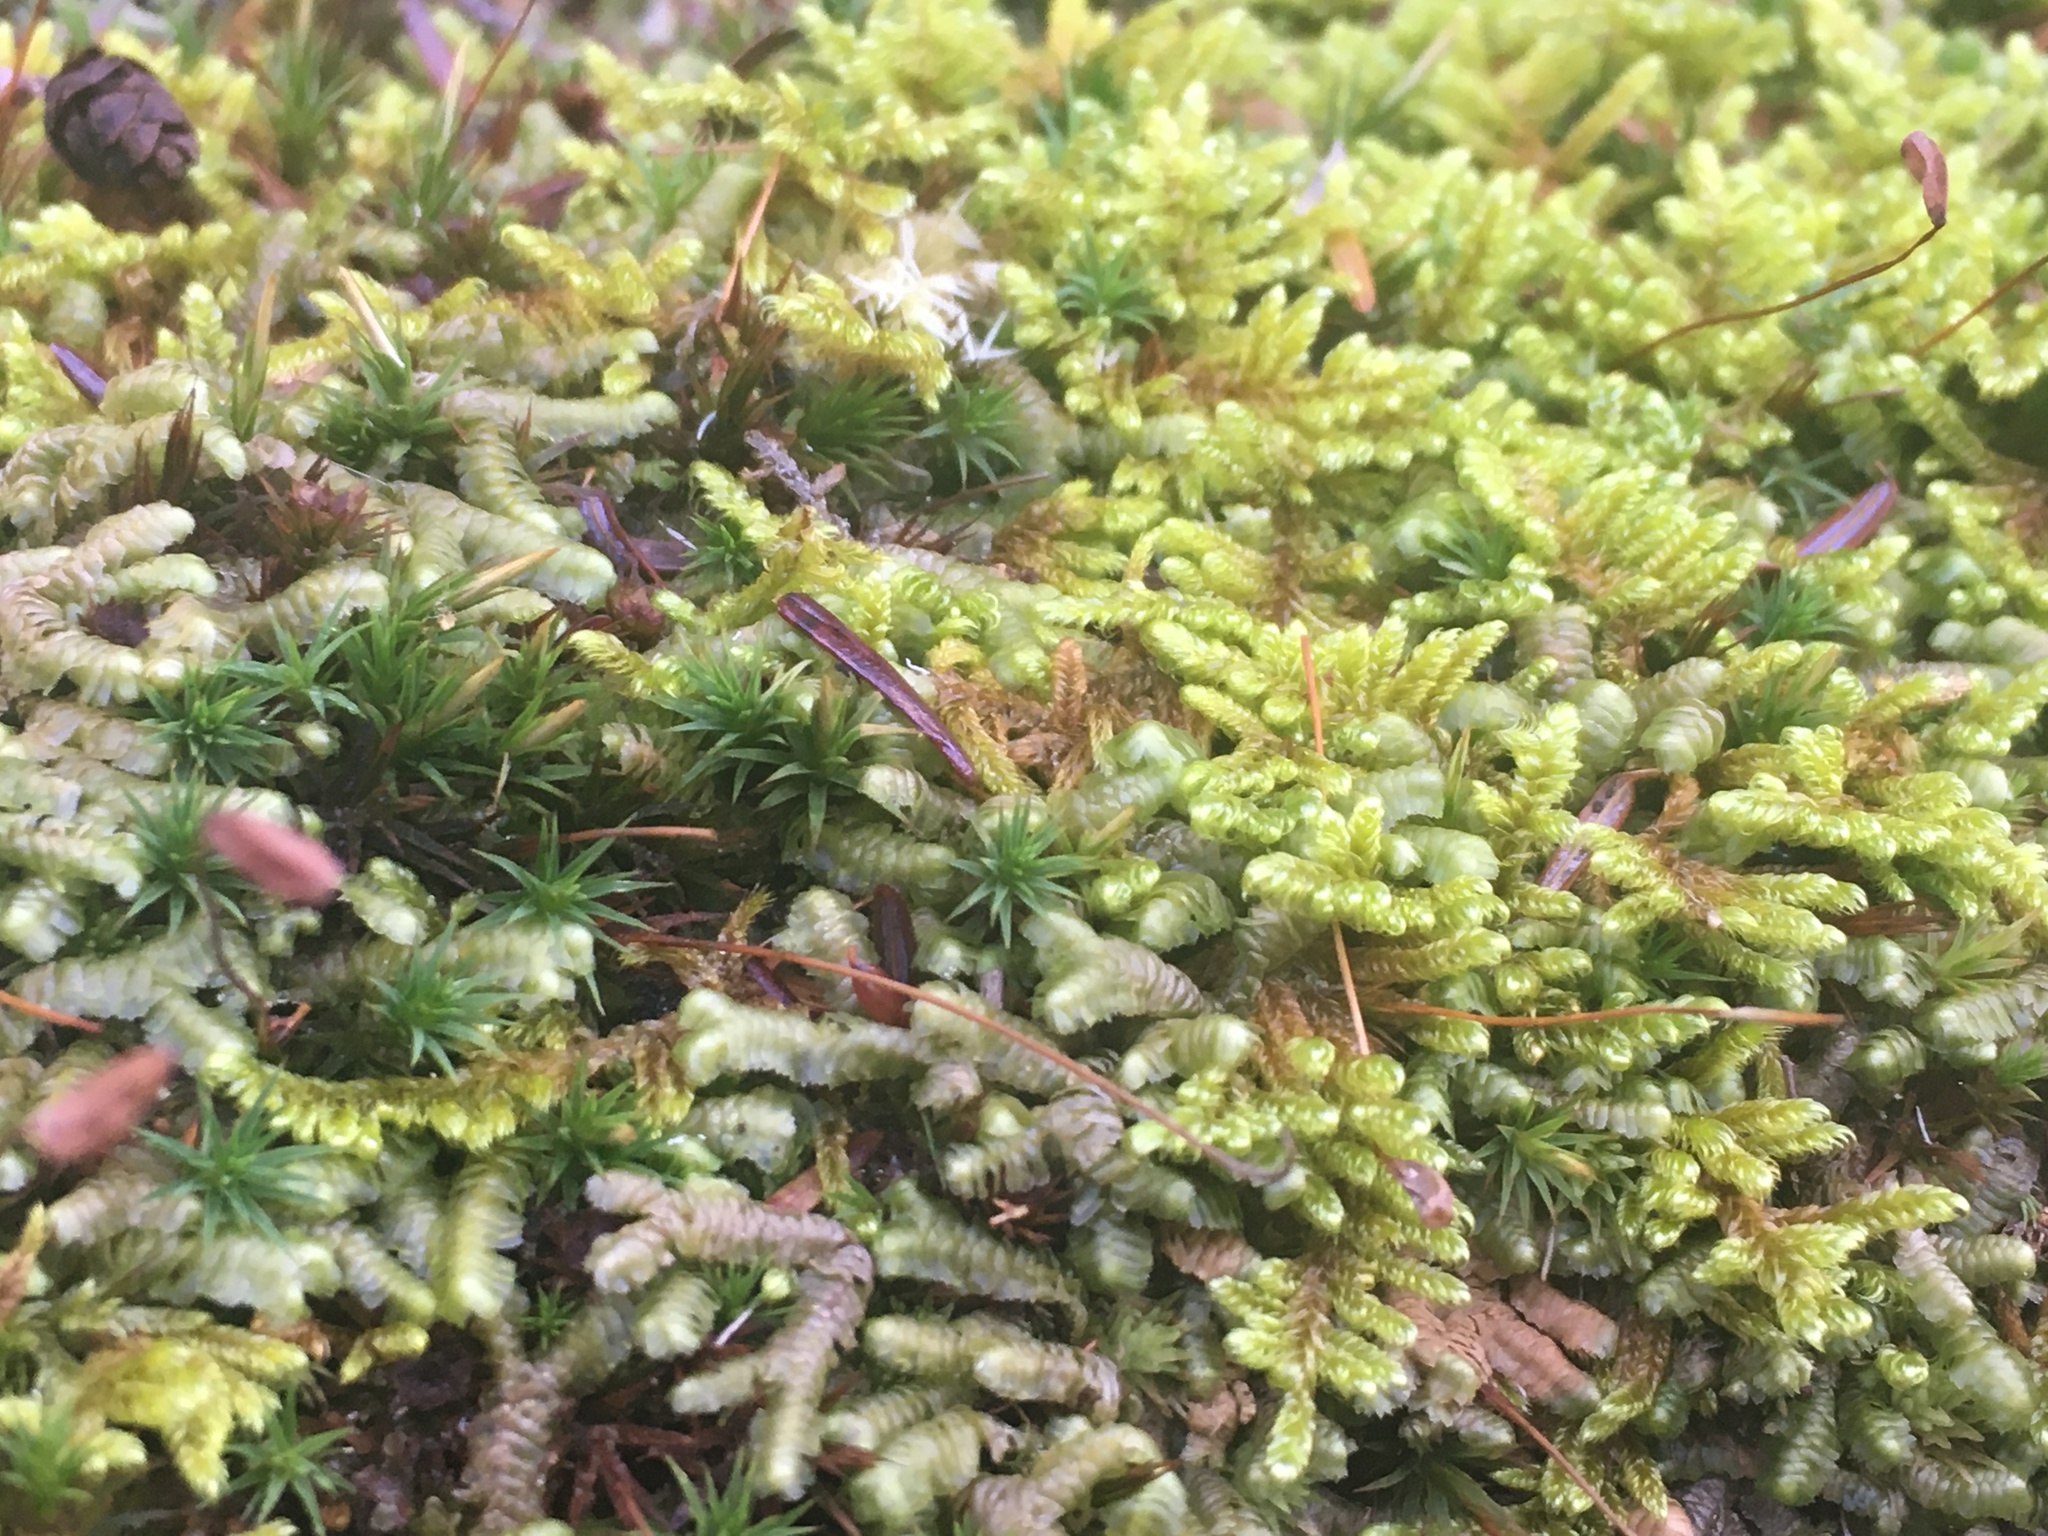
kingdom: Plantae
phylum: Marchantiophyta
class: Jungermanniopsida
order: Jungermanniales
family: Lepidoziaceae
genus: Bazzania
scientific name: Bazzania trilobata
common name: Three-lobed whipwort
